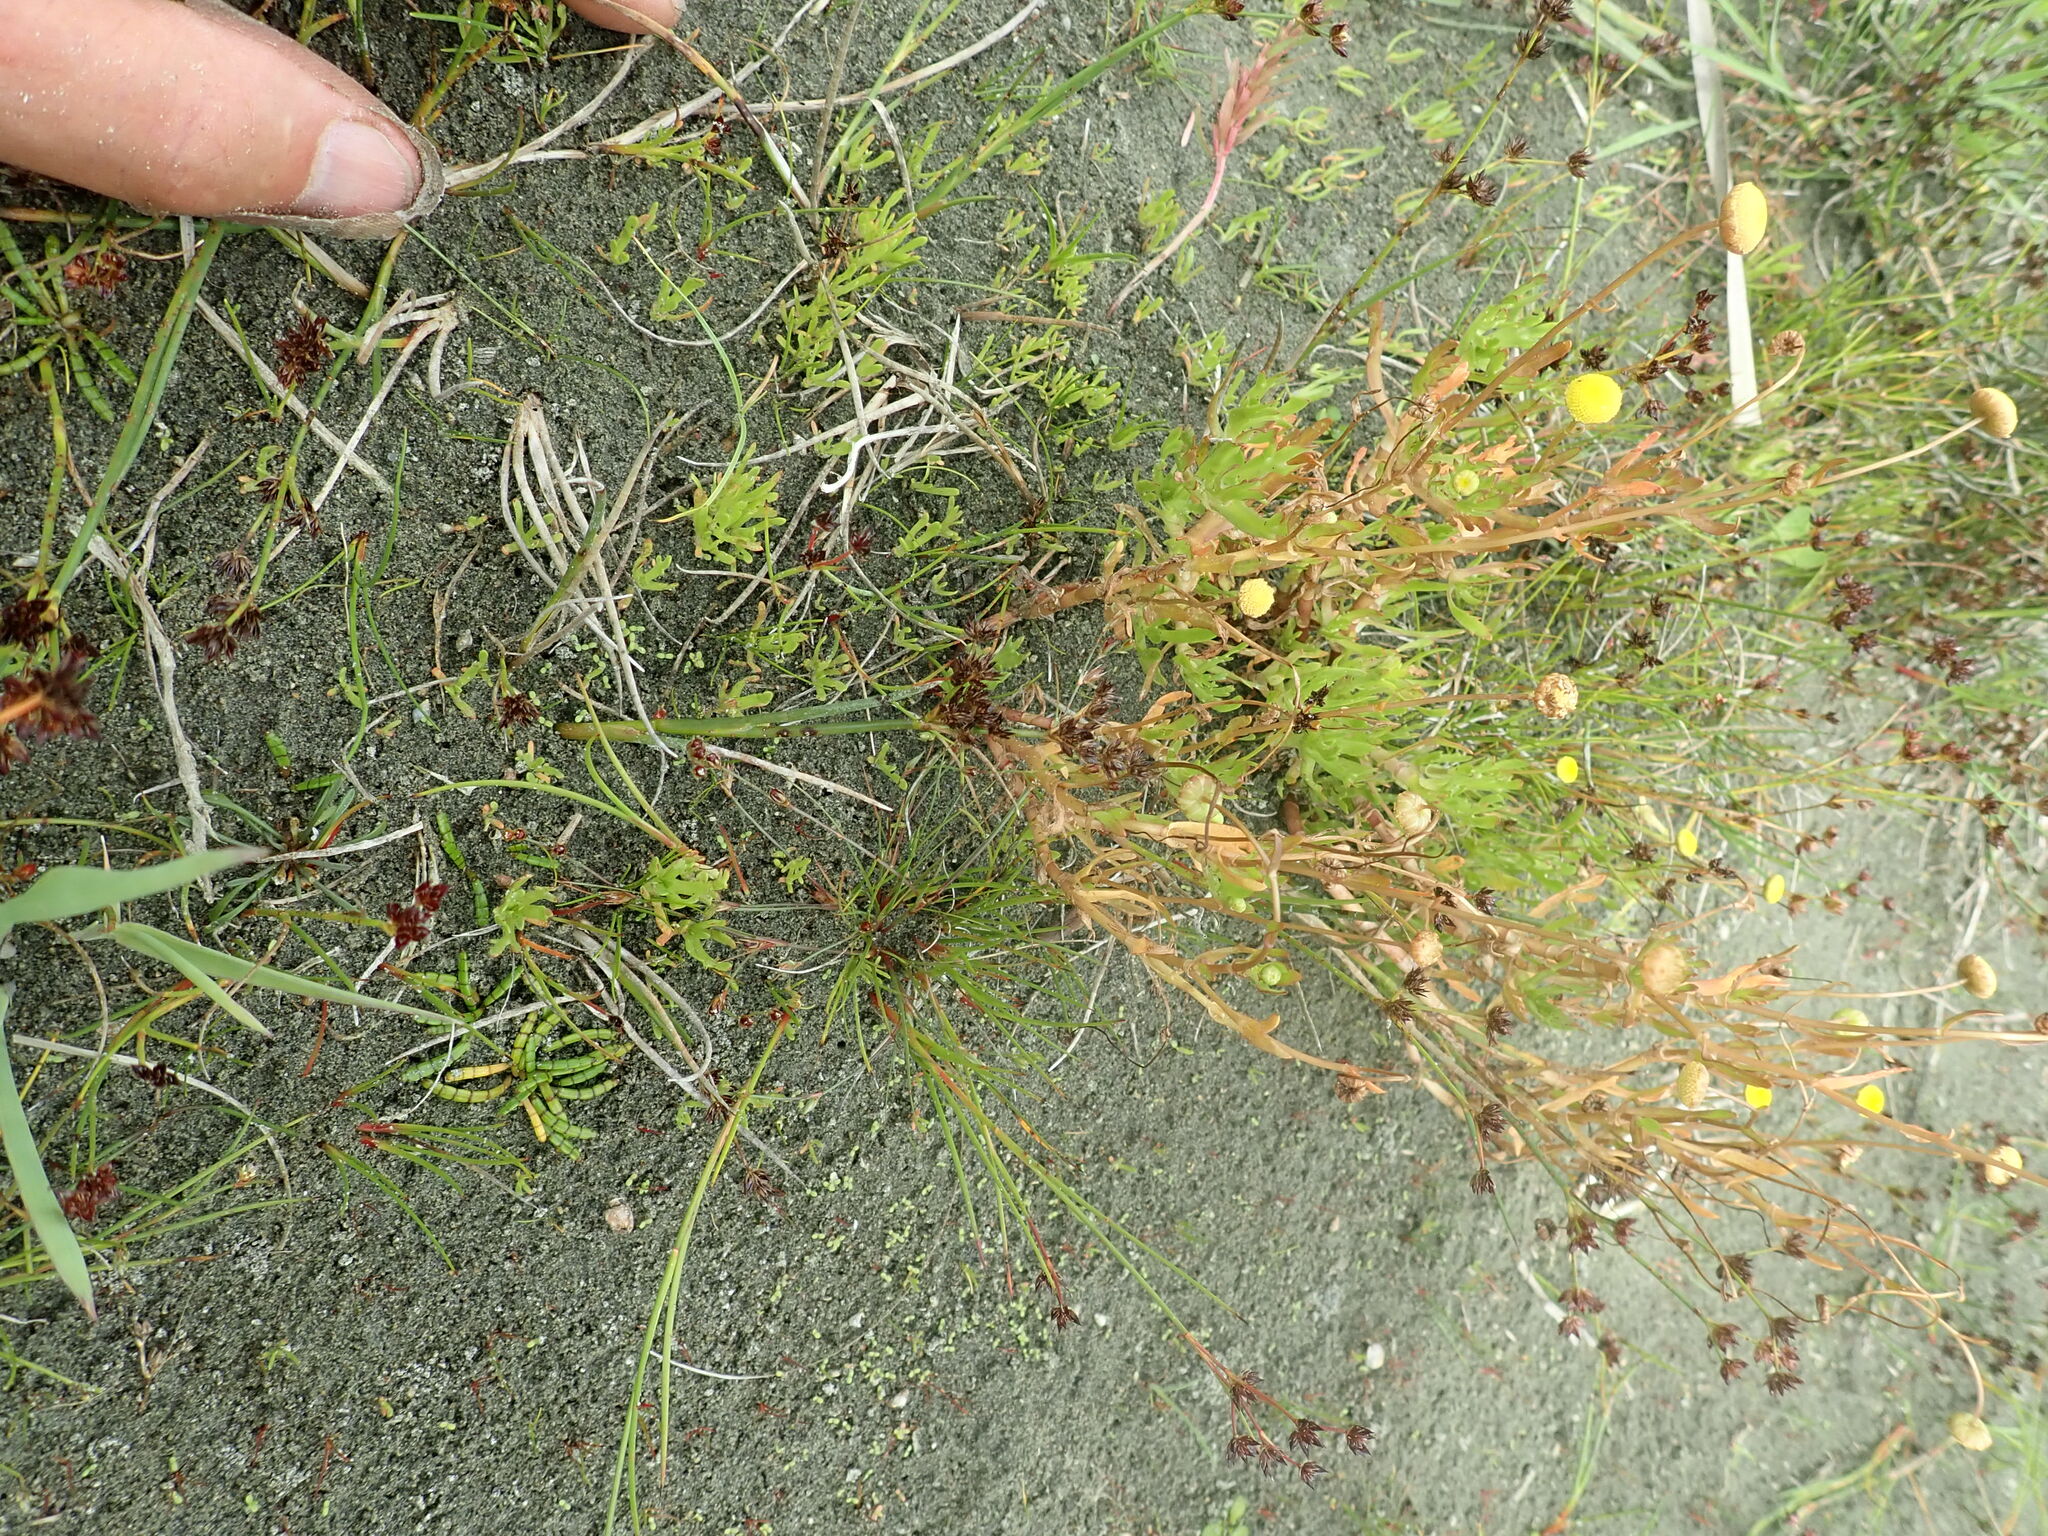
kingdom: Plantae
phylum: Tracheophyta
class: Magnoliopsida
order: Asterales
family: Asteraceae
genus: Cotula
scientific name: Cotula coronopifolia
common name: Buttonweed
